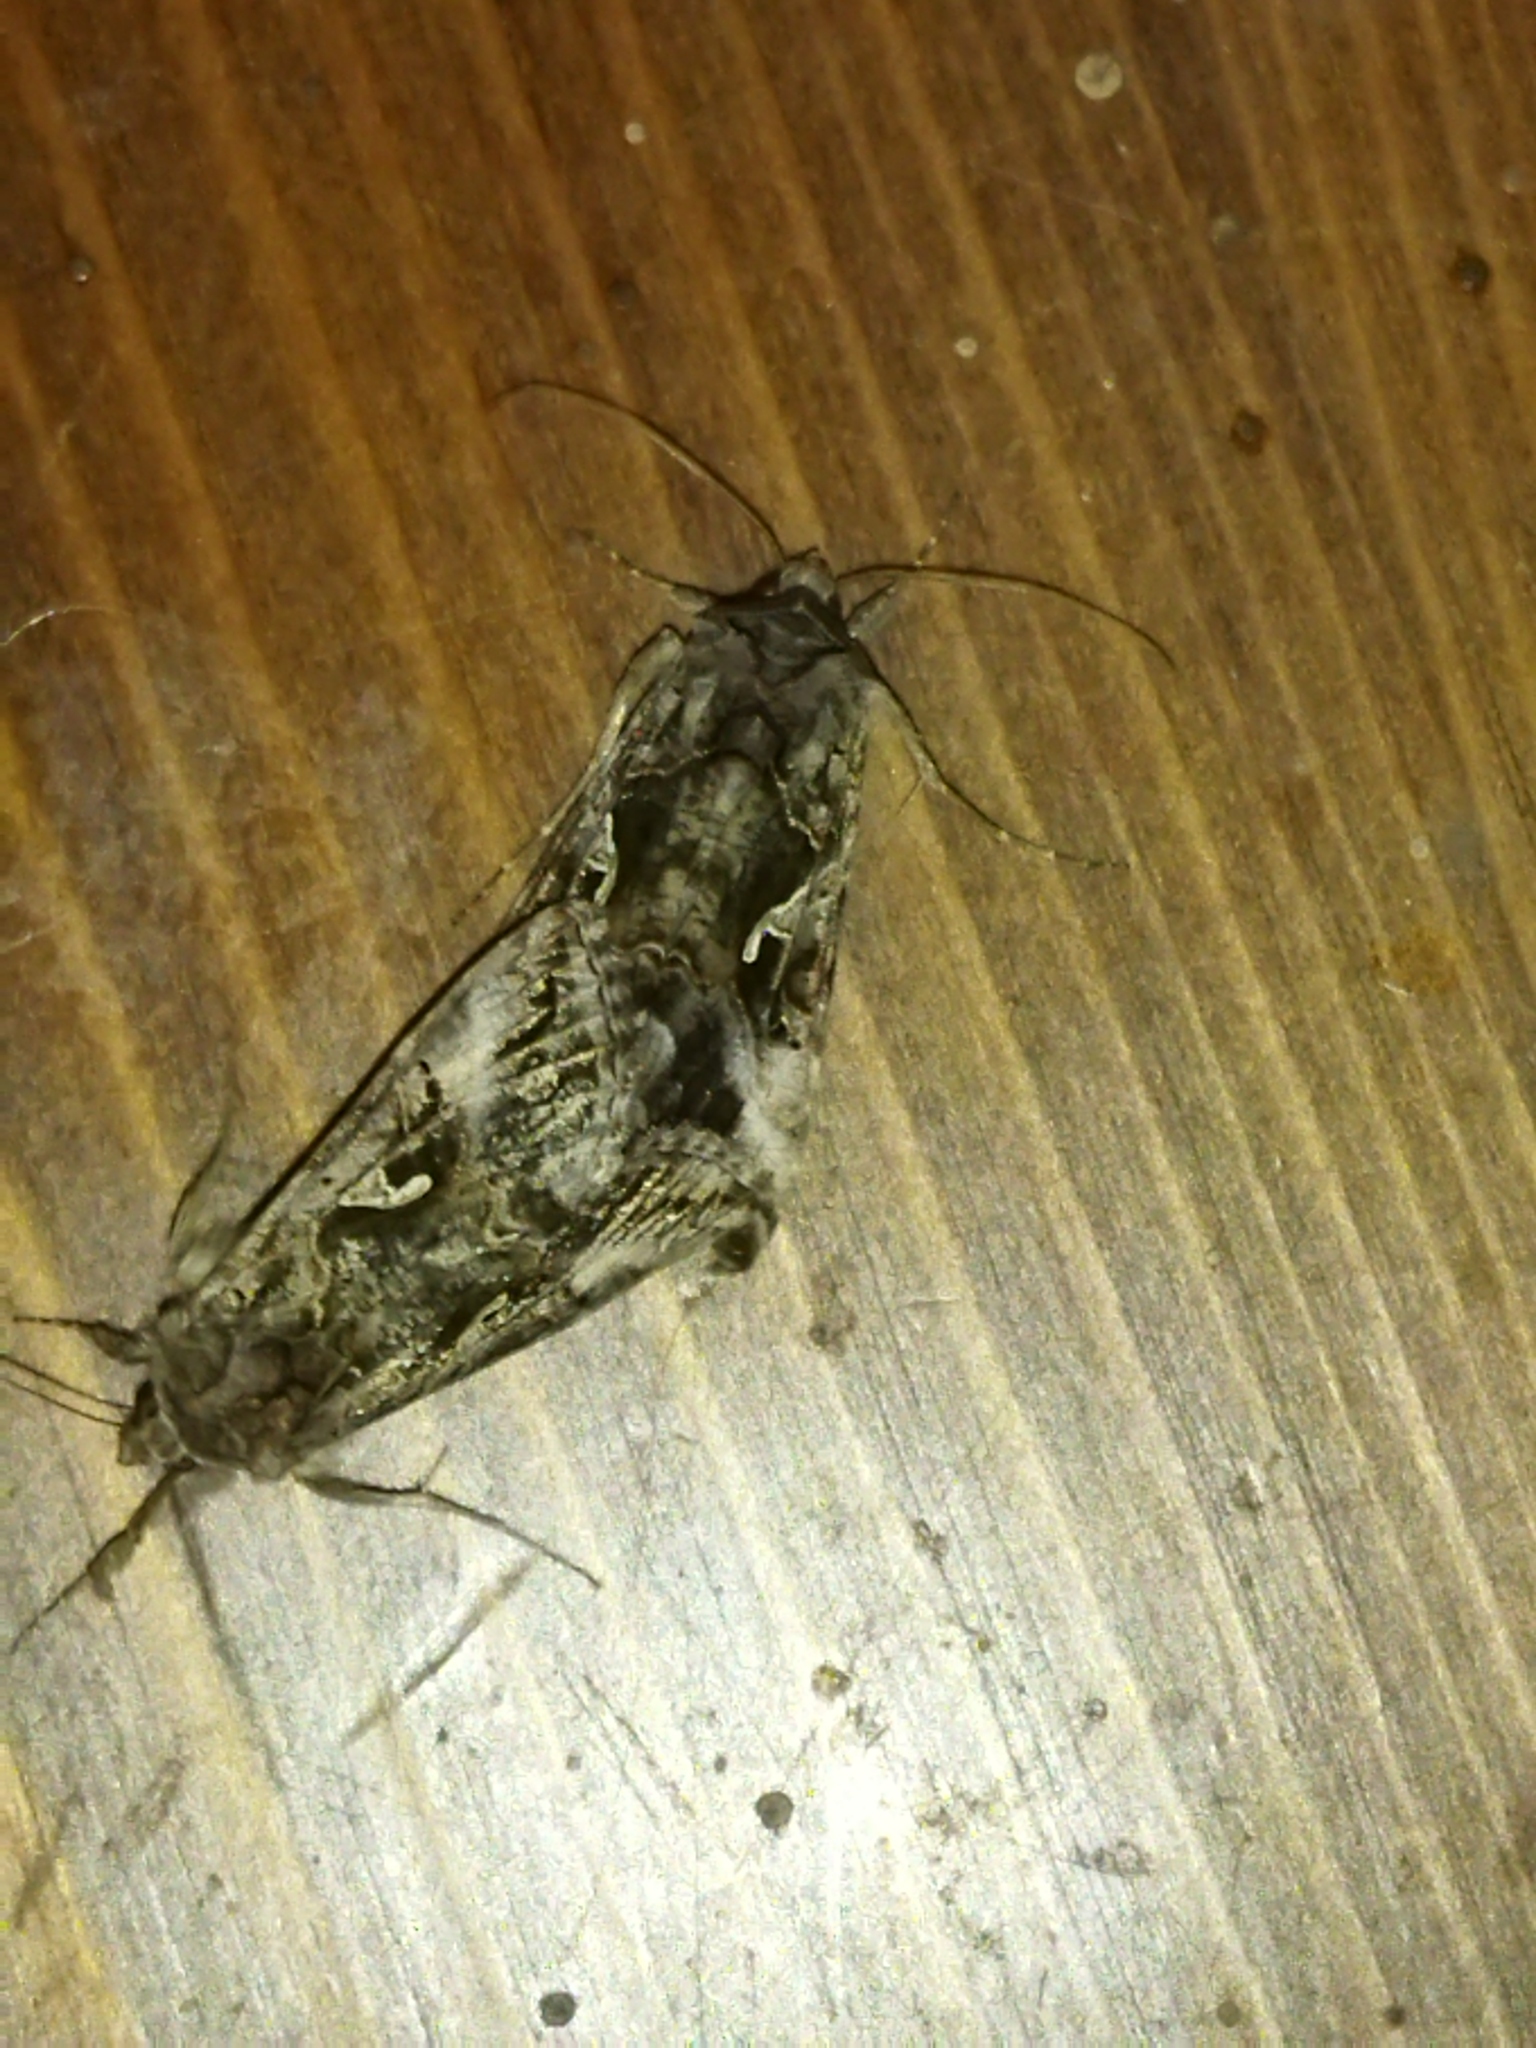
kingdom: Animalia
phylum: Arthropoda
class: Insecta
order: Lepidoptera
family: Noctuidae
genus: Autographa
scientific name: Autographa gamma
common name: Silver y
